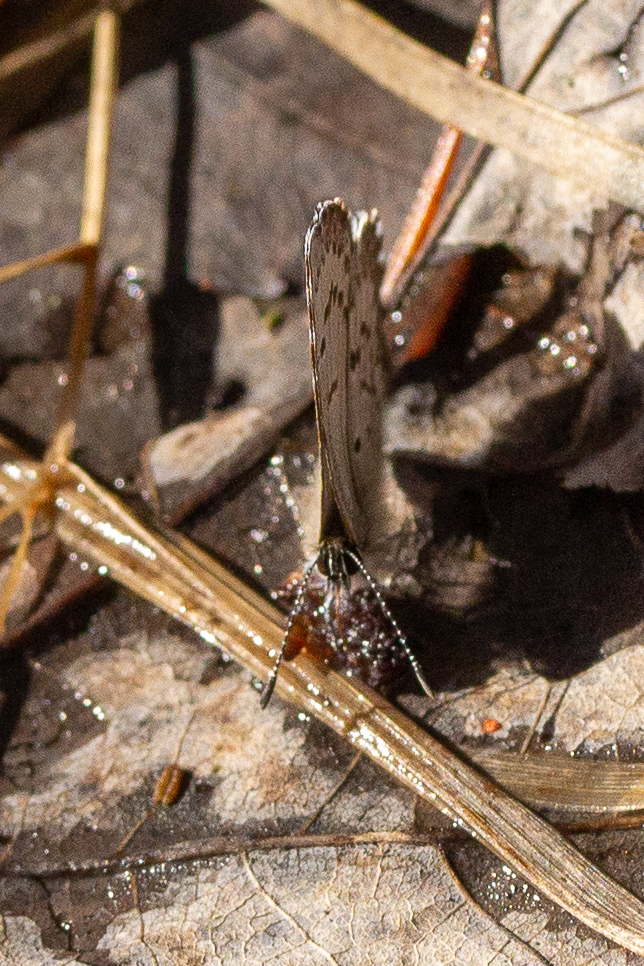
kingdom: Animalia
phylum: Arthropoda
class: Insecta
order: Lepidoptera
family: Lycaenidae
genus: Celastrina
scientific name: Celastrina lucia
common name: Lucia azure
